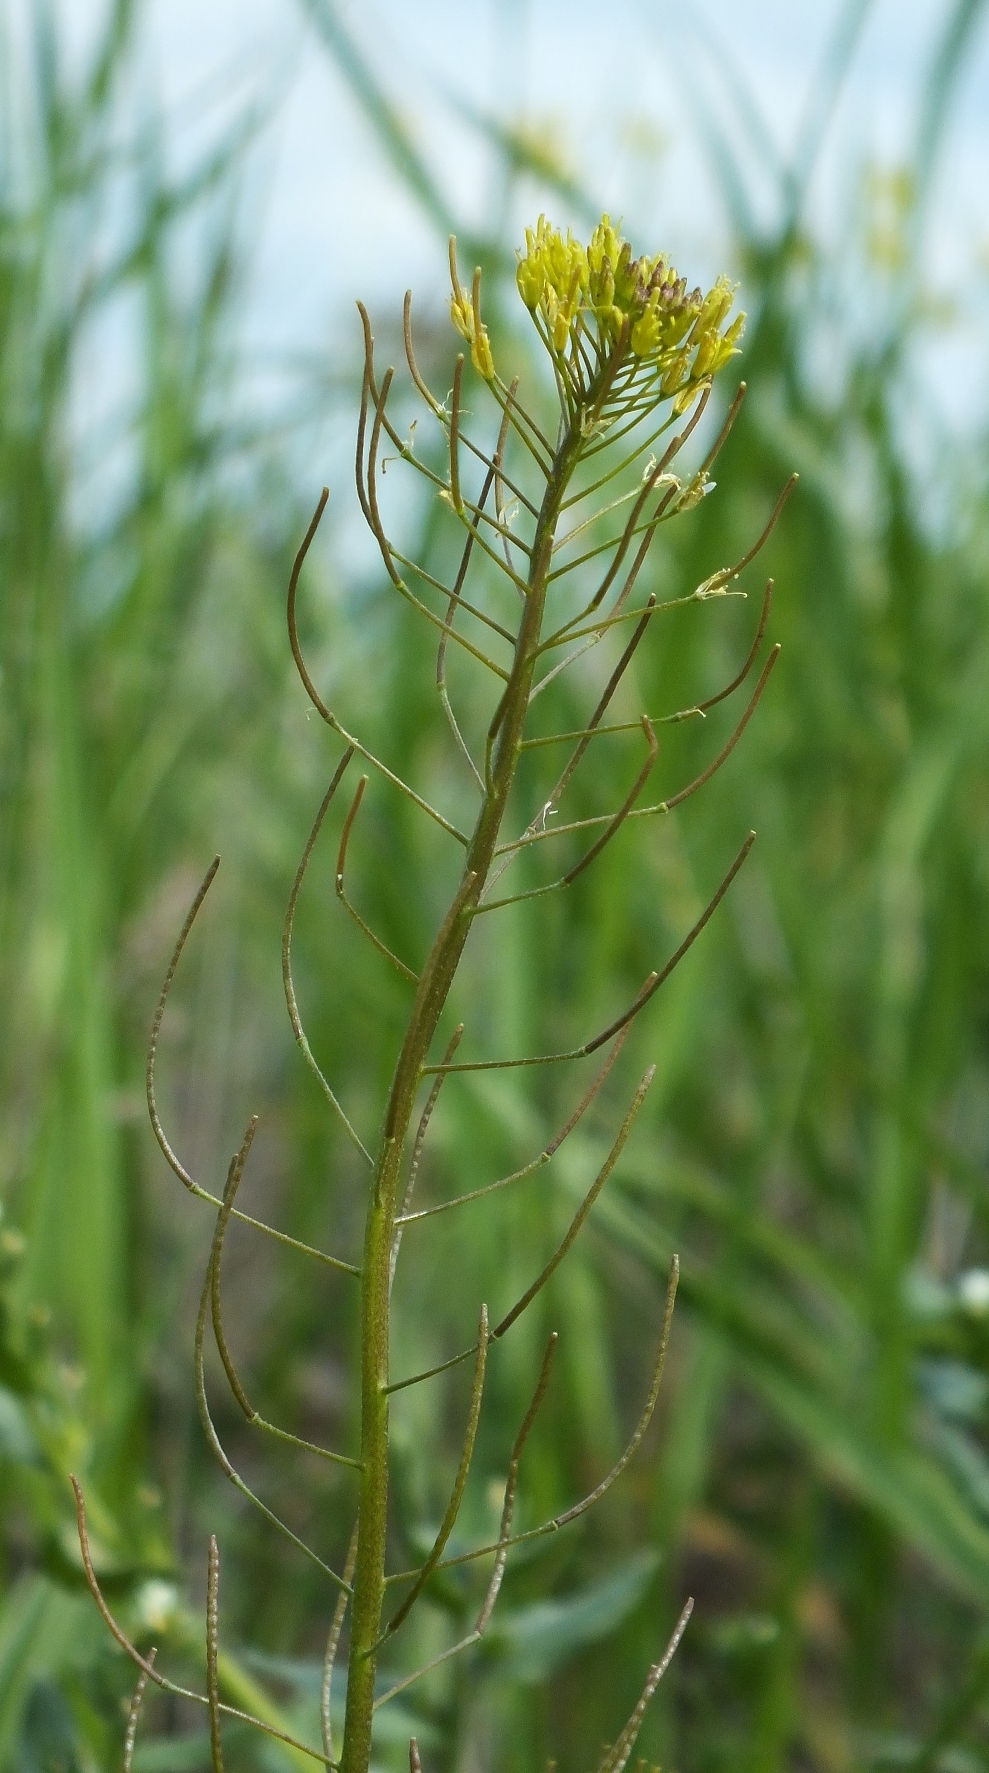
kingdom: Plantae
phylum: Tracheophyta
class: Magnoliopsida
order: Brassicales
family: Brassicaceae
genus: Descurainia
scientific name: Descurainia sophia
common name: Flixweed
